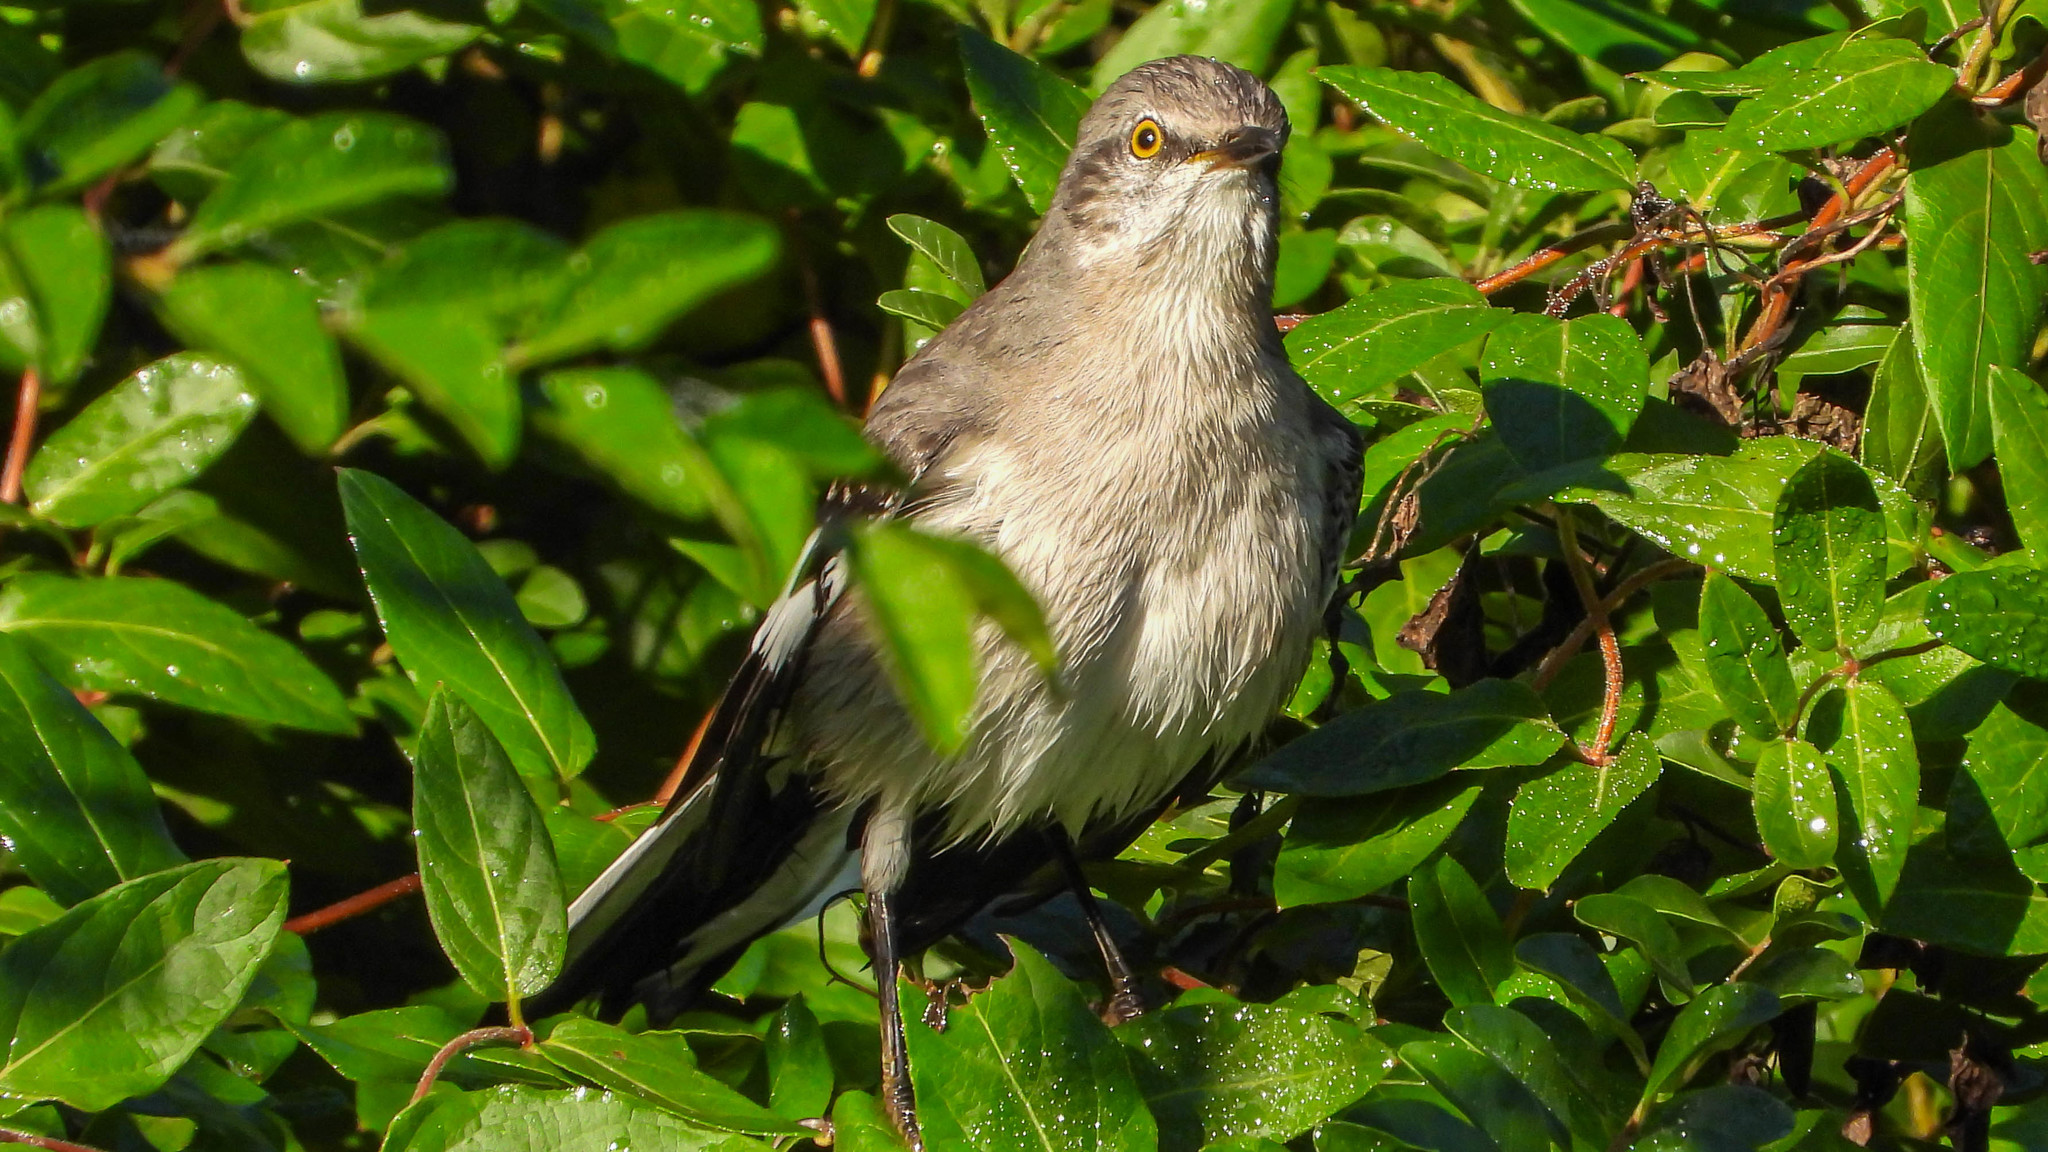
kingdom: Animalia
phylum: Chordata
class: Aves
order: Passeriformes
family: Mimidae
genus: Mimus
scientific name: Mimus polyglottos
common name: Northern mockingbird
